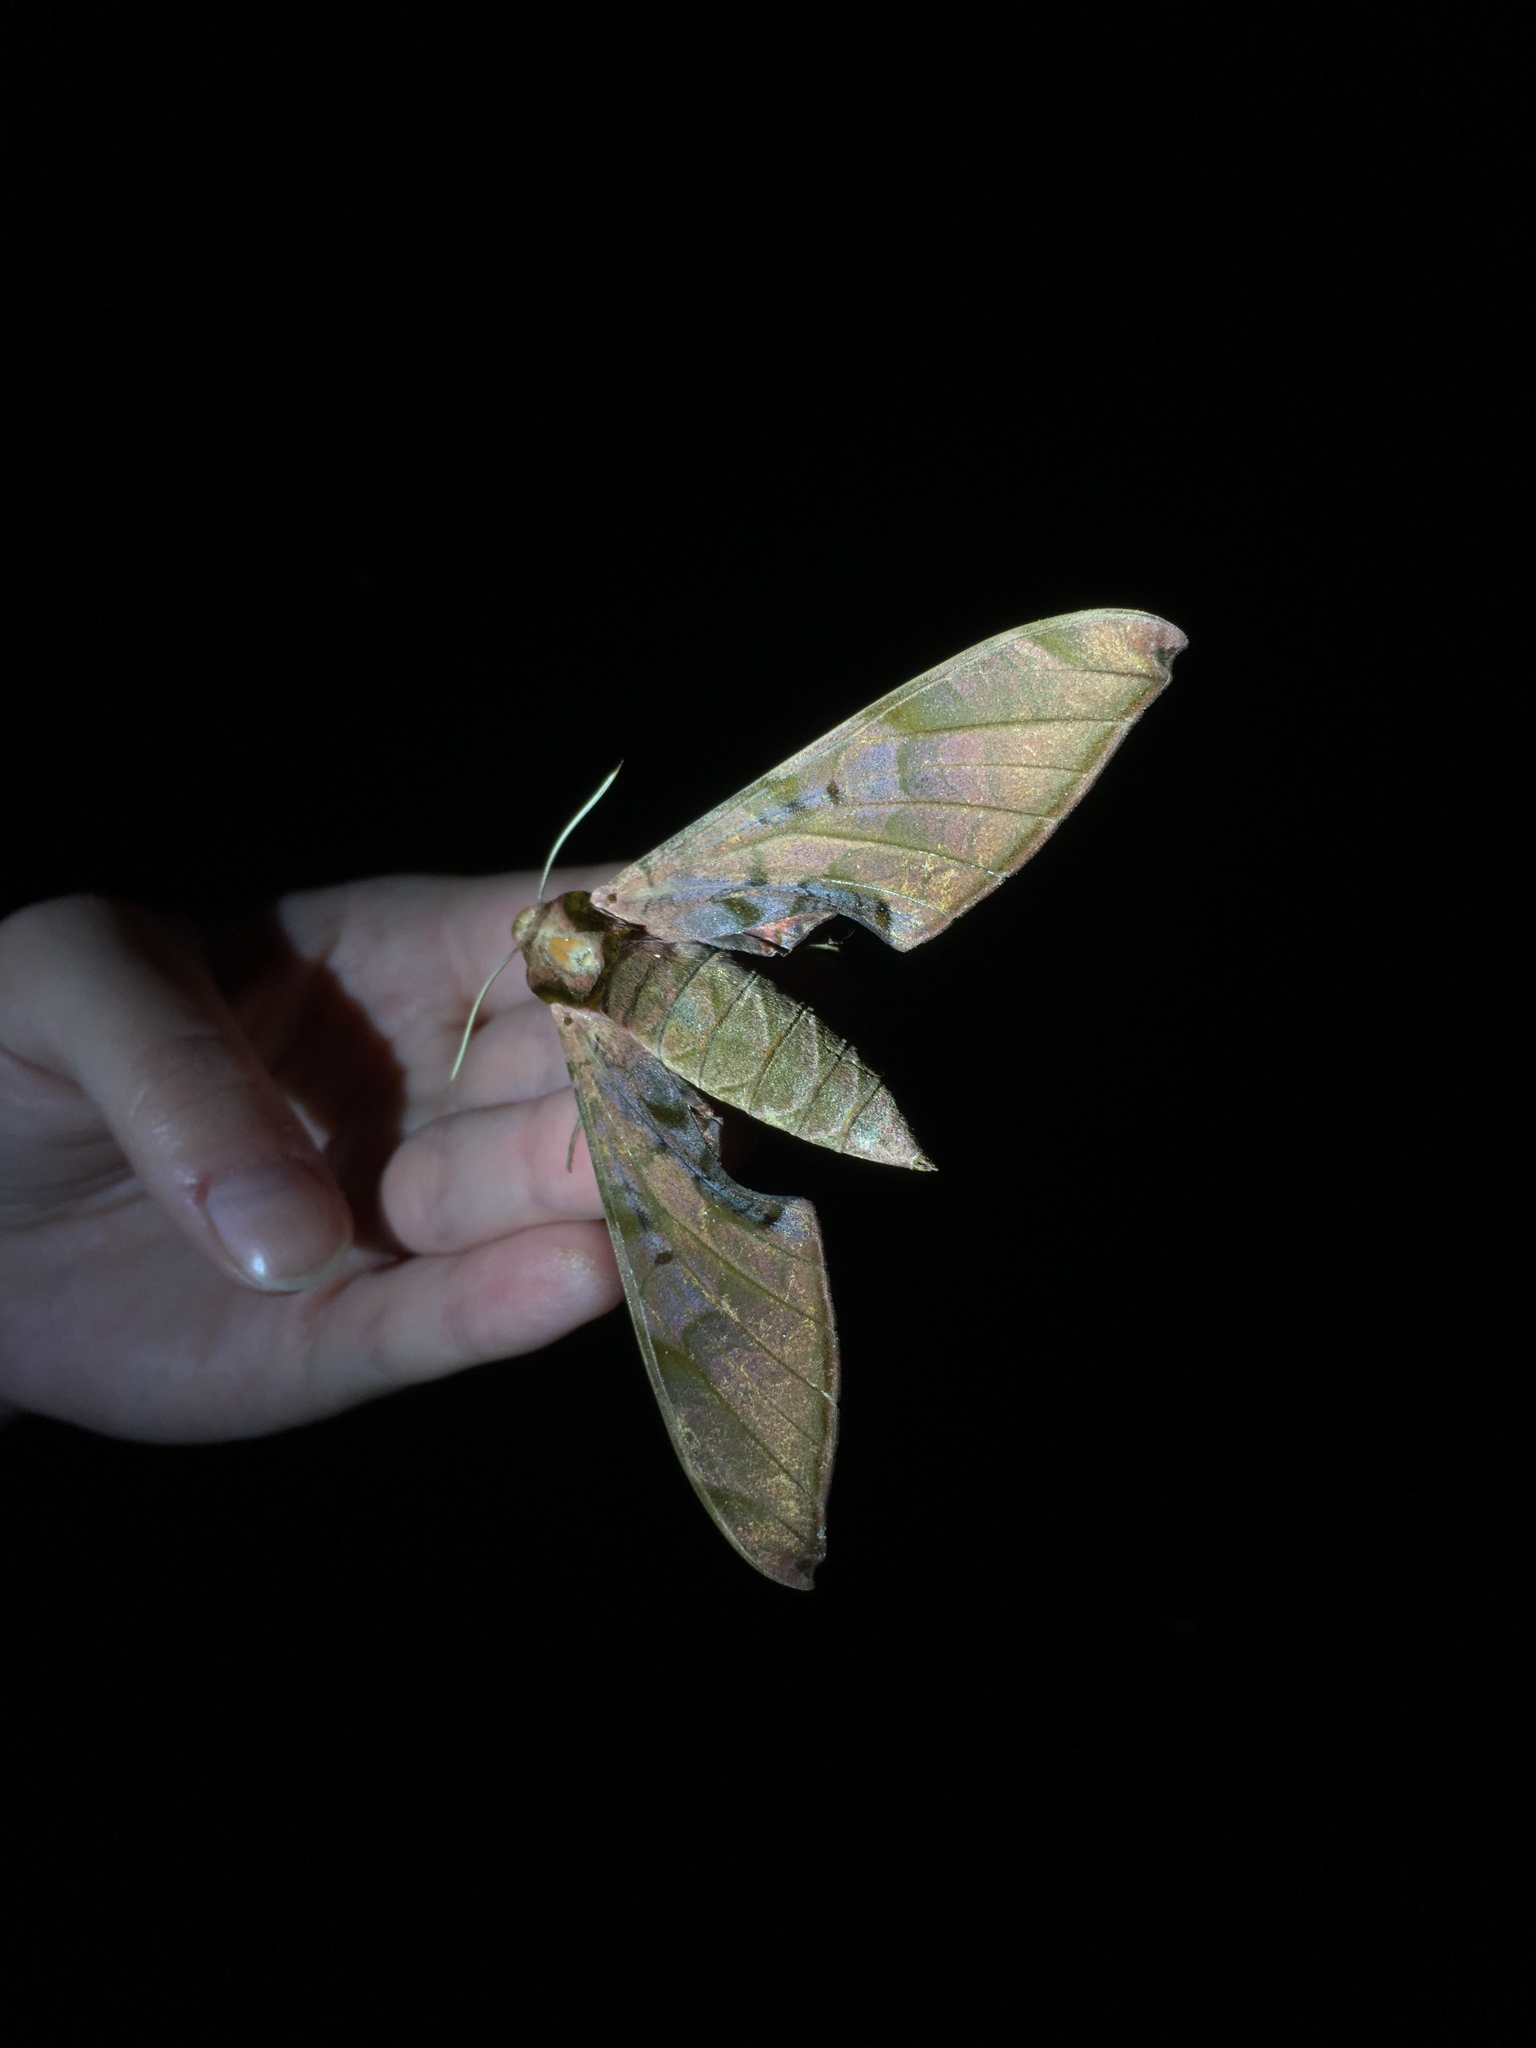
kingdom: Animalia
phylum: Arthropoda
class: Insecta
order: Lepidoptera
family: Sphingidae
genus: Protambulyx
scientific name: Protambulyx strigilis
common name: Streaked sphinx
